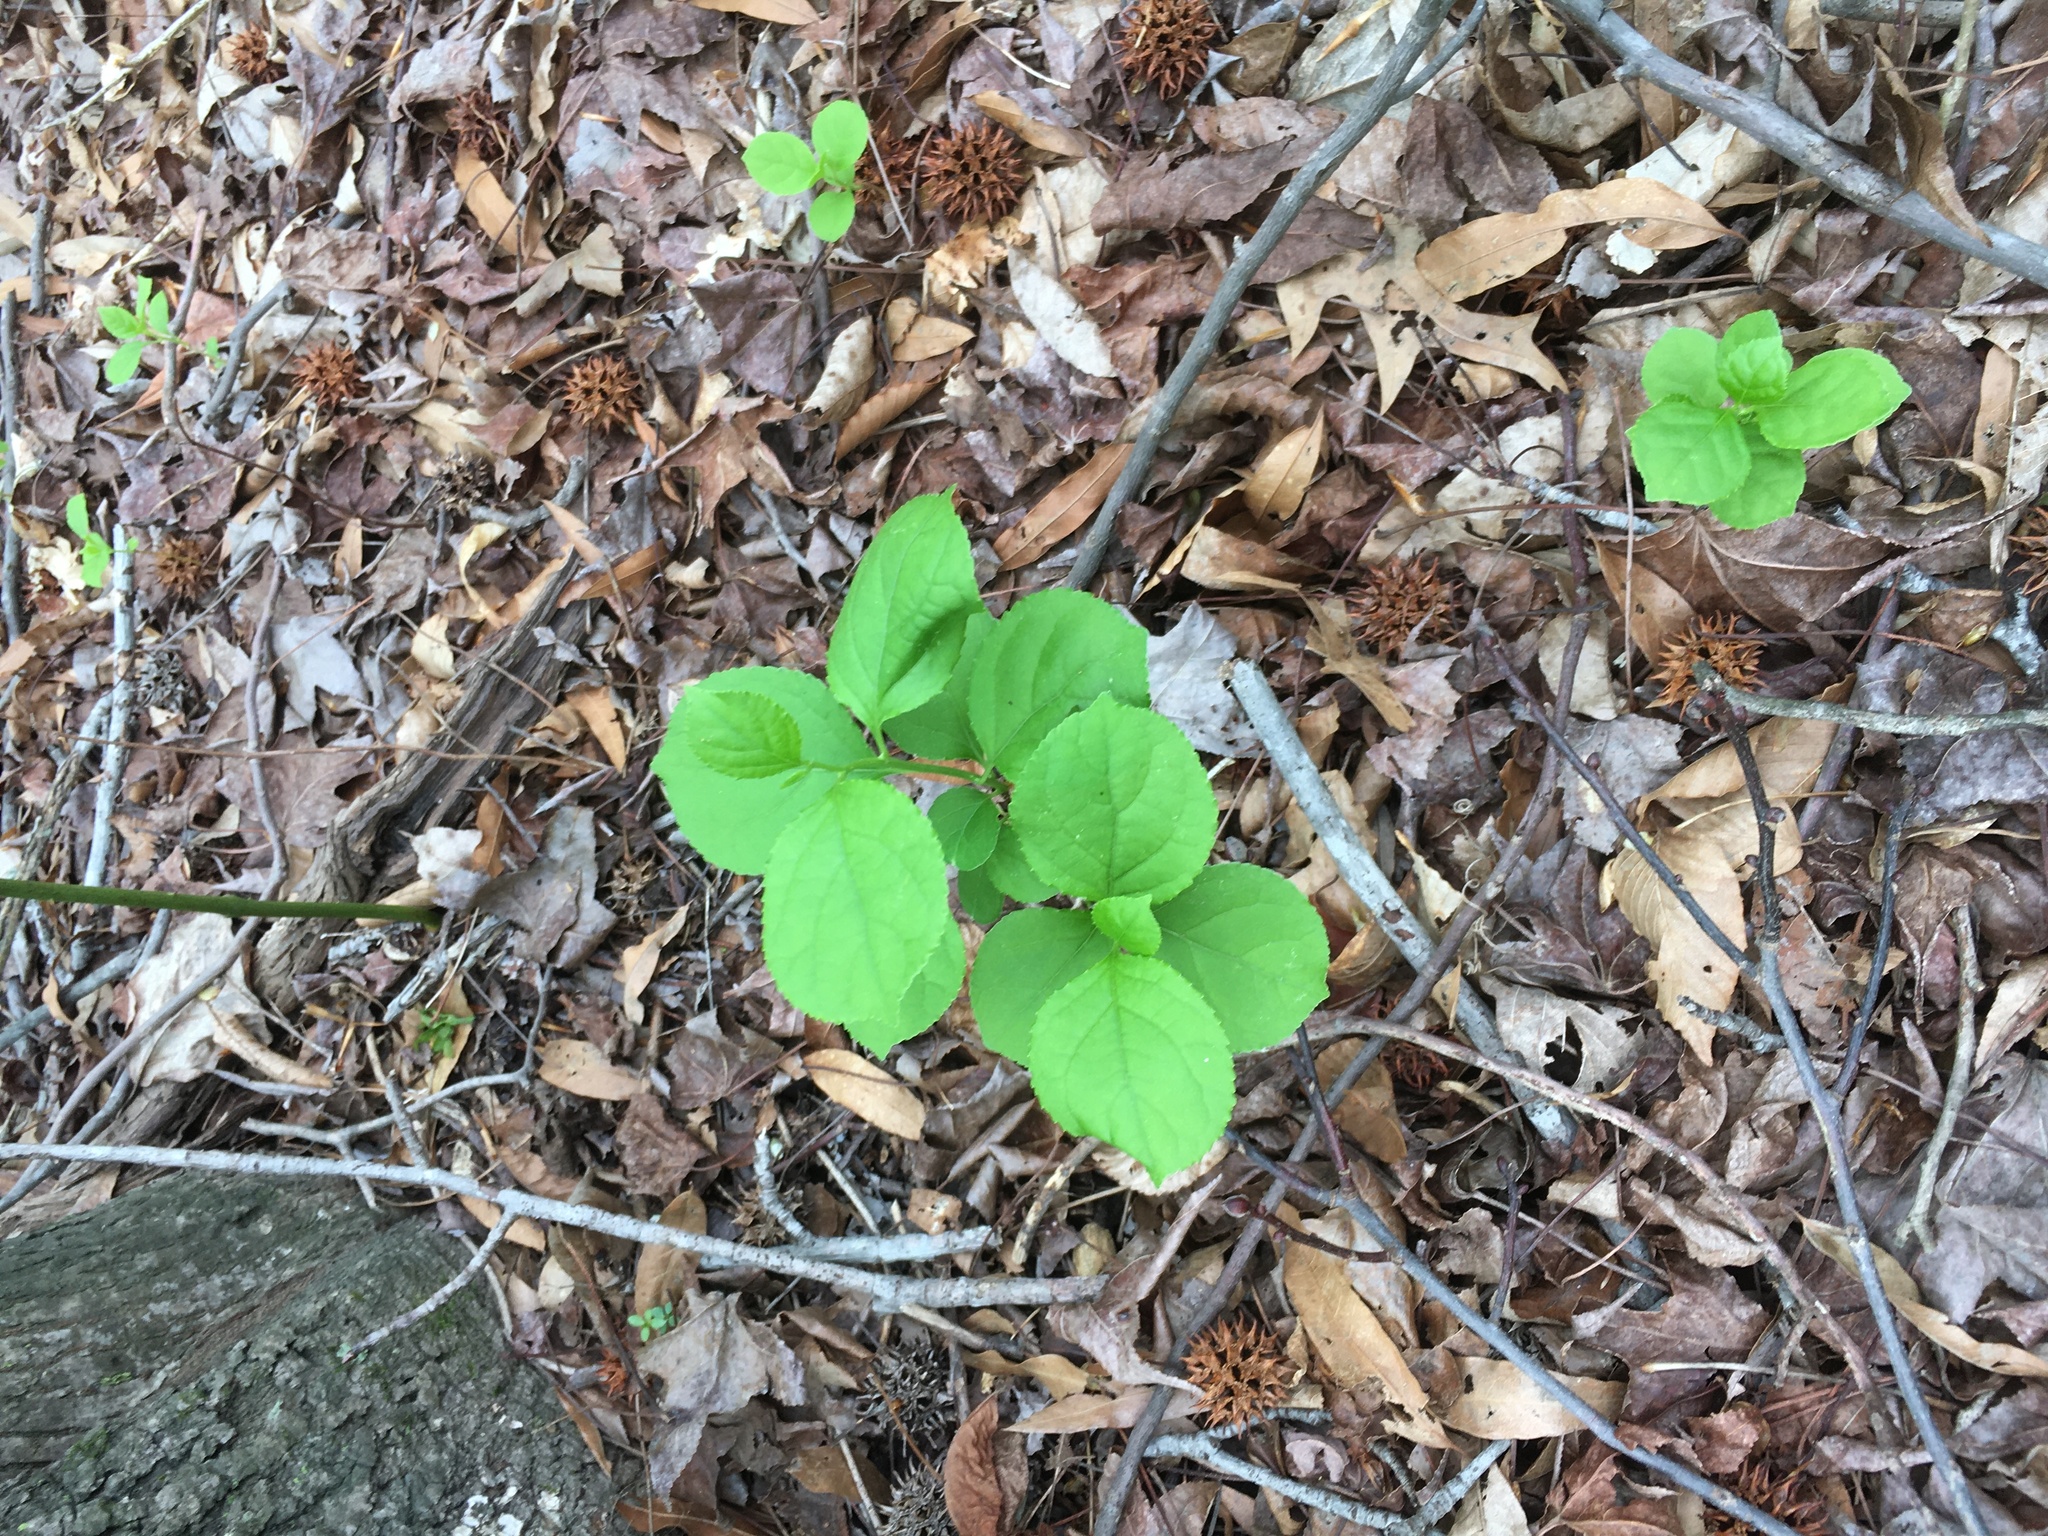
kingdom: Plantae
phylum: Tracheophyta
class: Magnoliopsida
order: Celastrales
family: Celastraceae
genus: Celastrus
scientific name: Celastrus orbiculatus
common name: Oriental bittersweet
